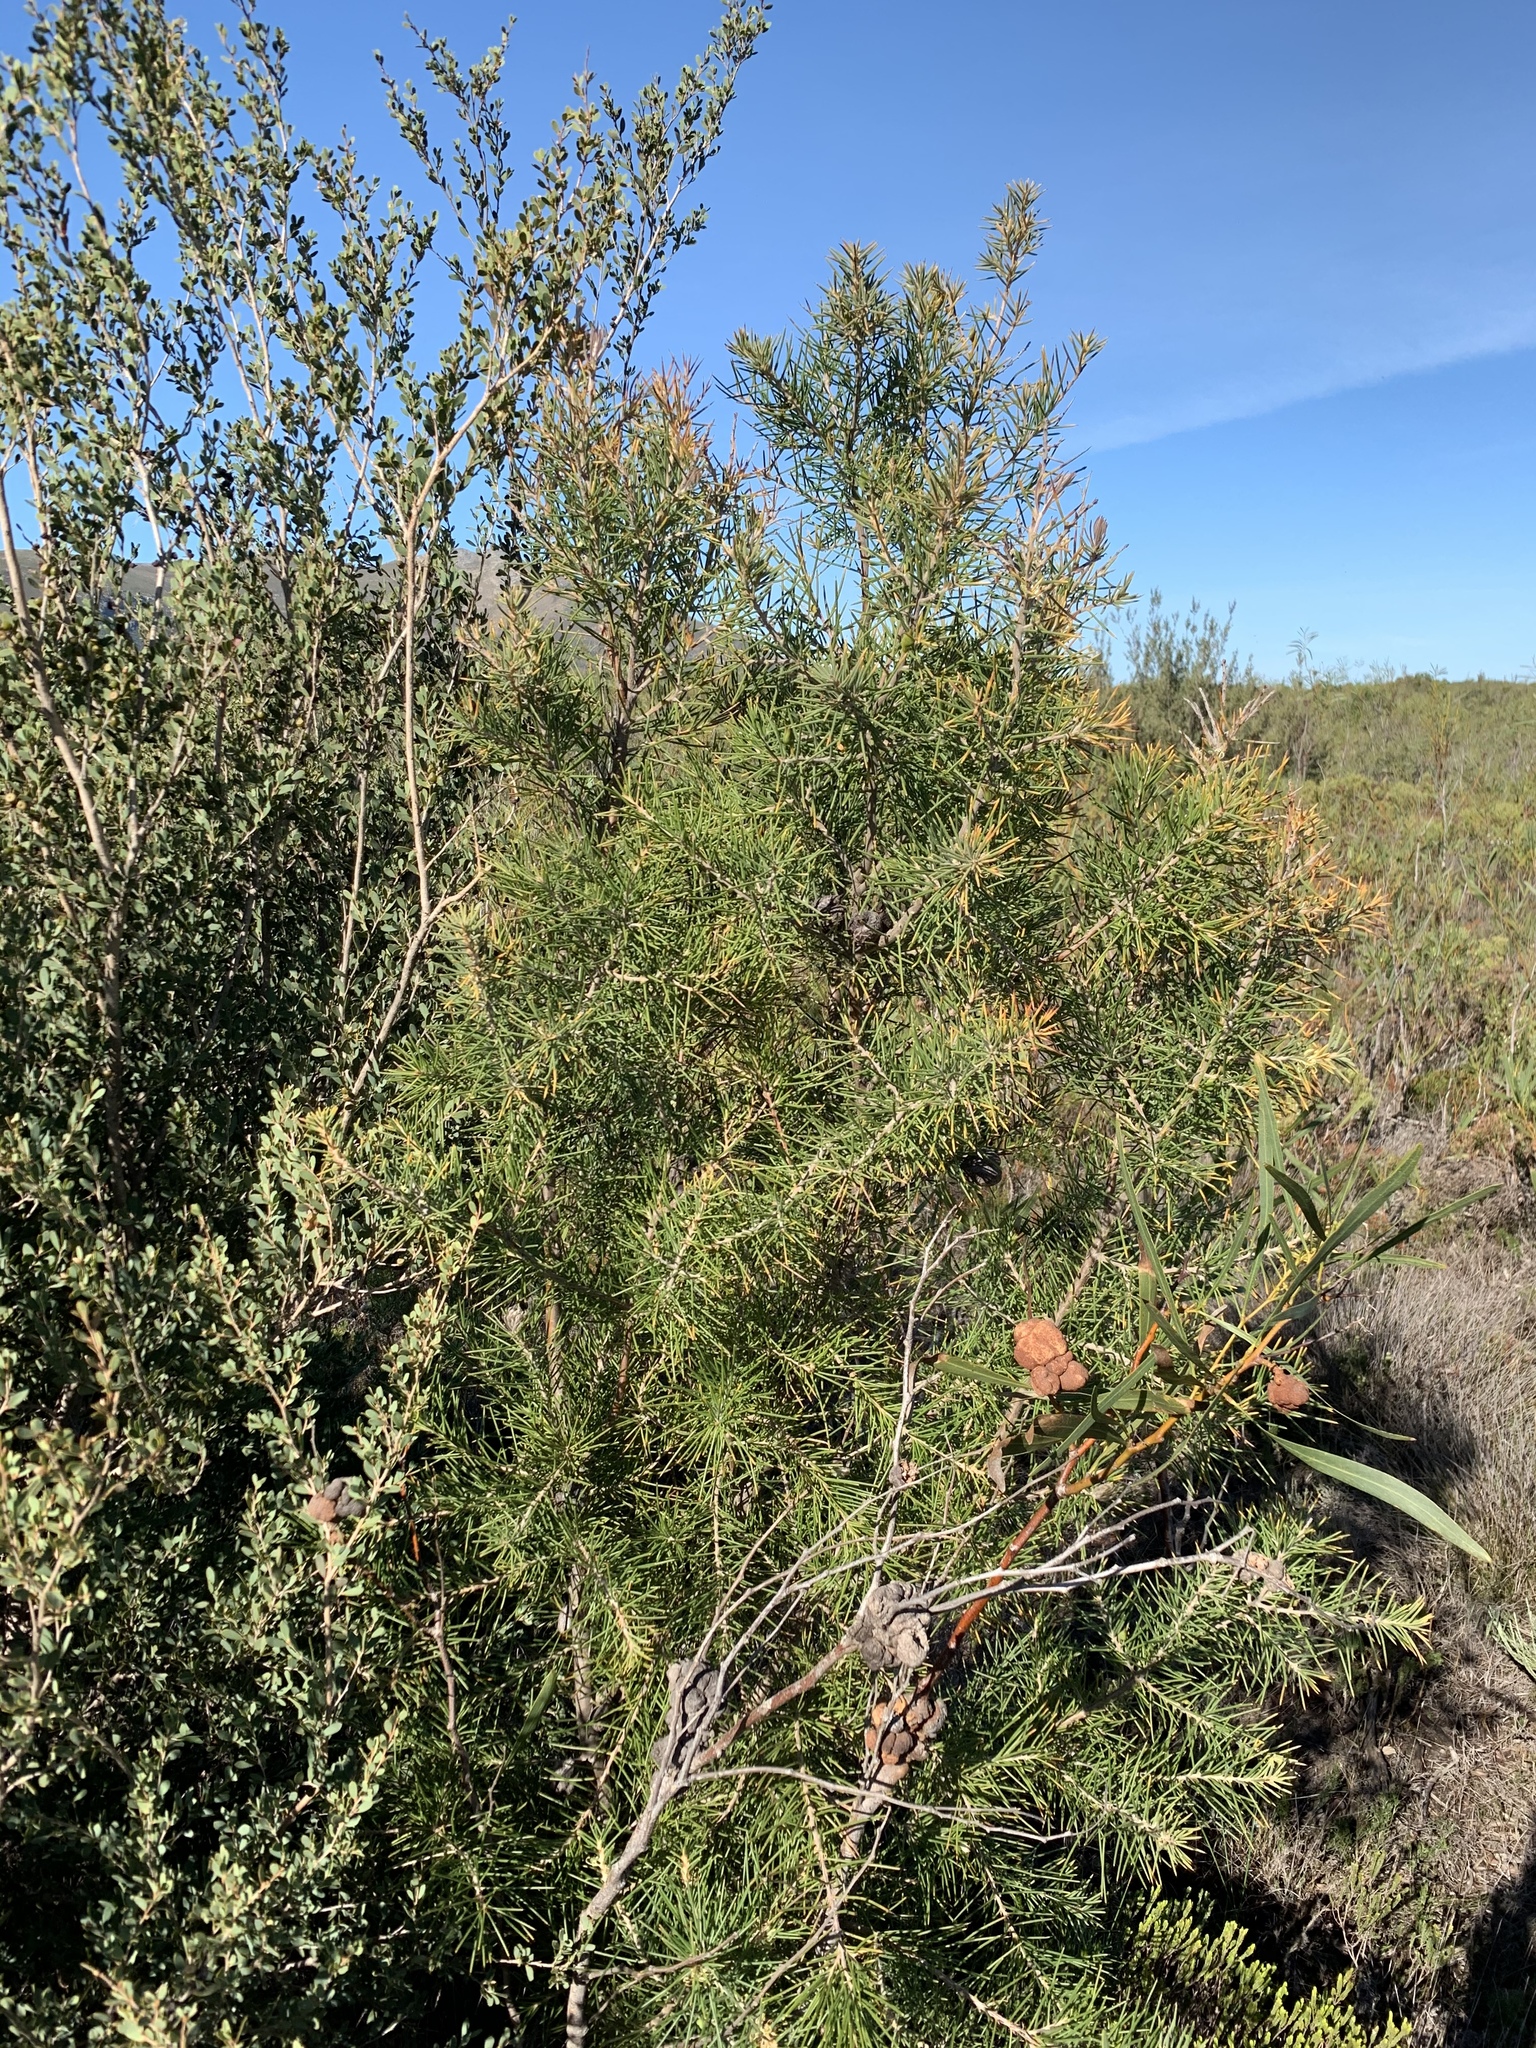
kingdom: Plantae
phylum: Tracheophyta
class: Magnoliopsida
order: Proteales
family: Proteaceae
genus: Hakea
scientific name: Hakea gibbosa
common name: Rock hakea
